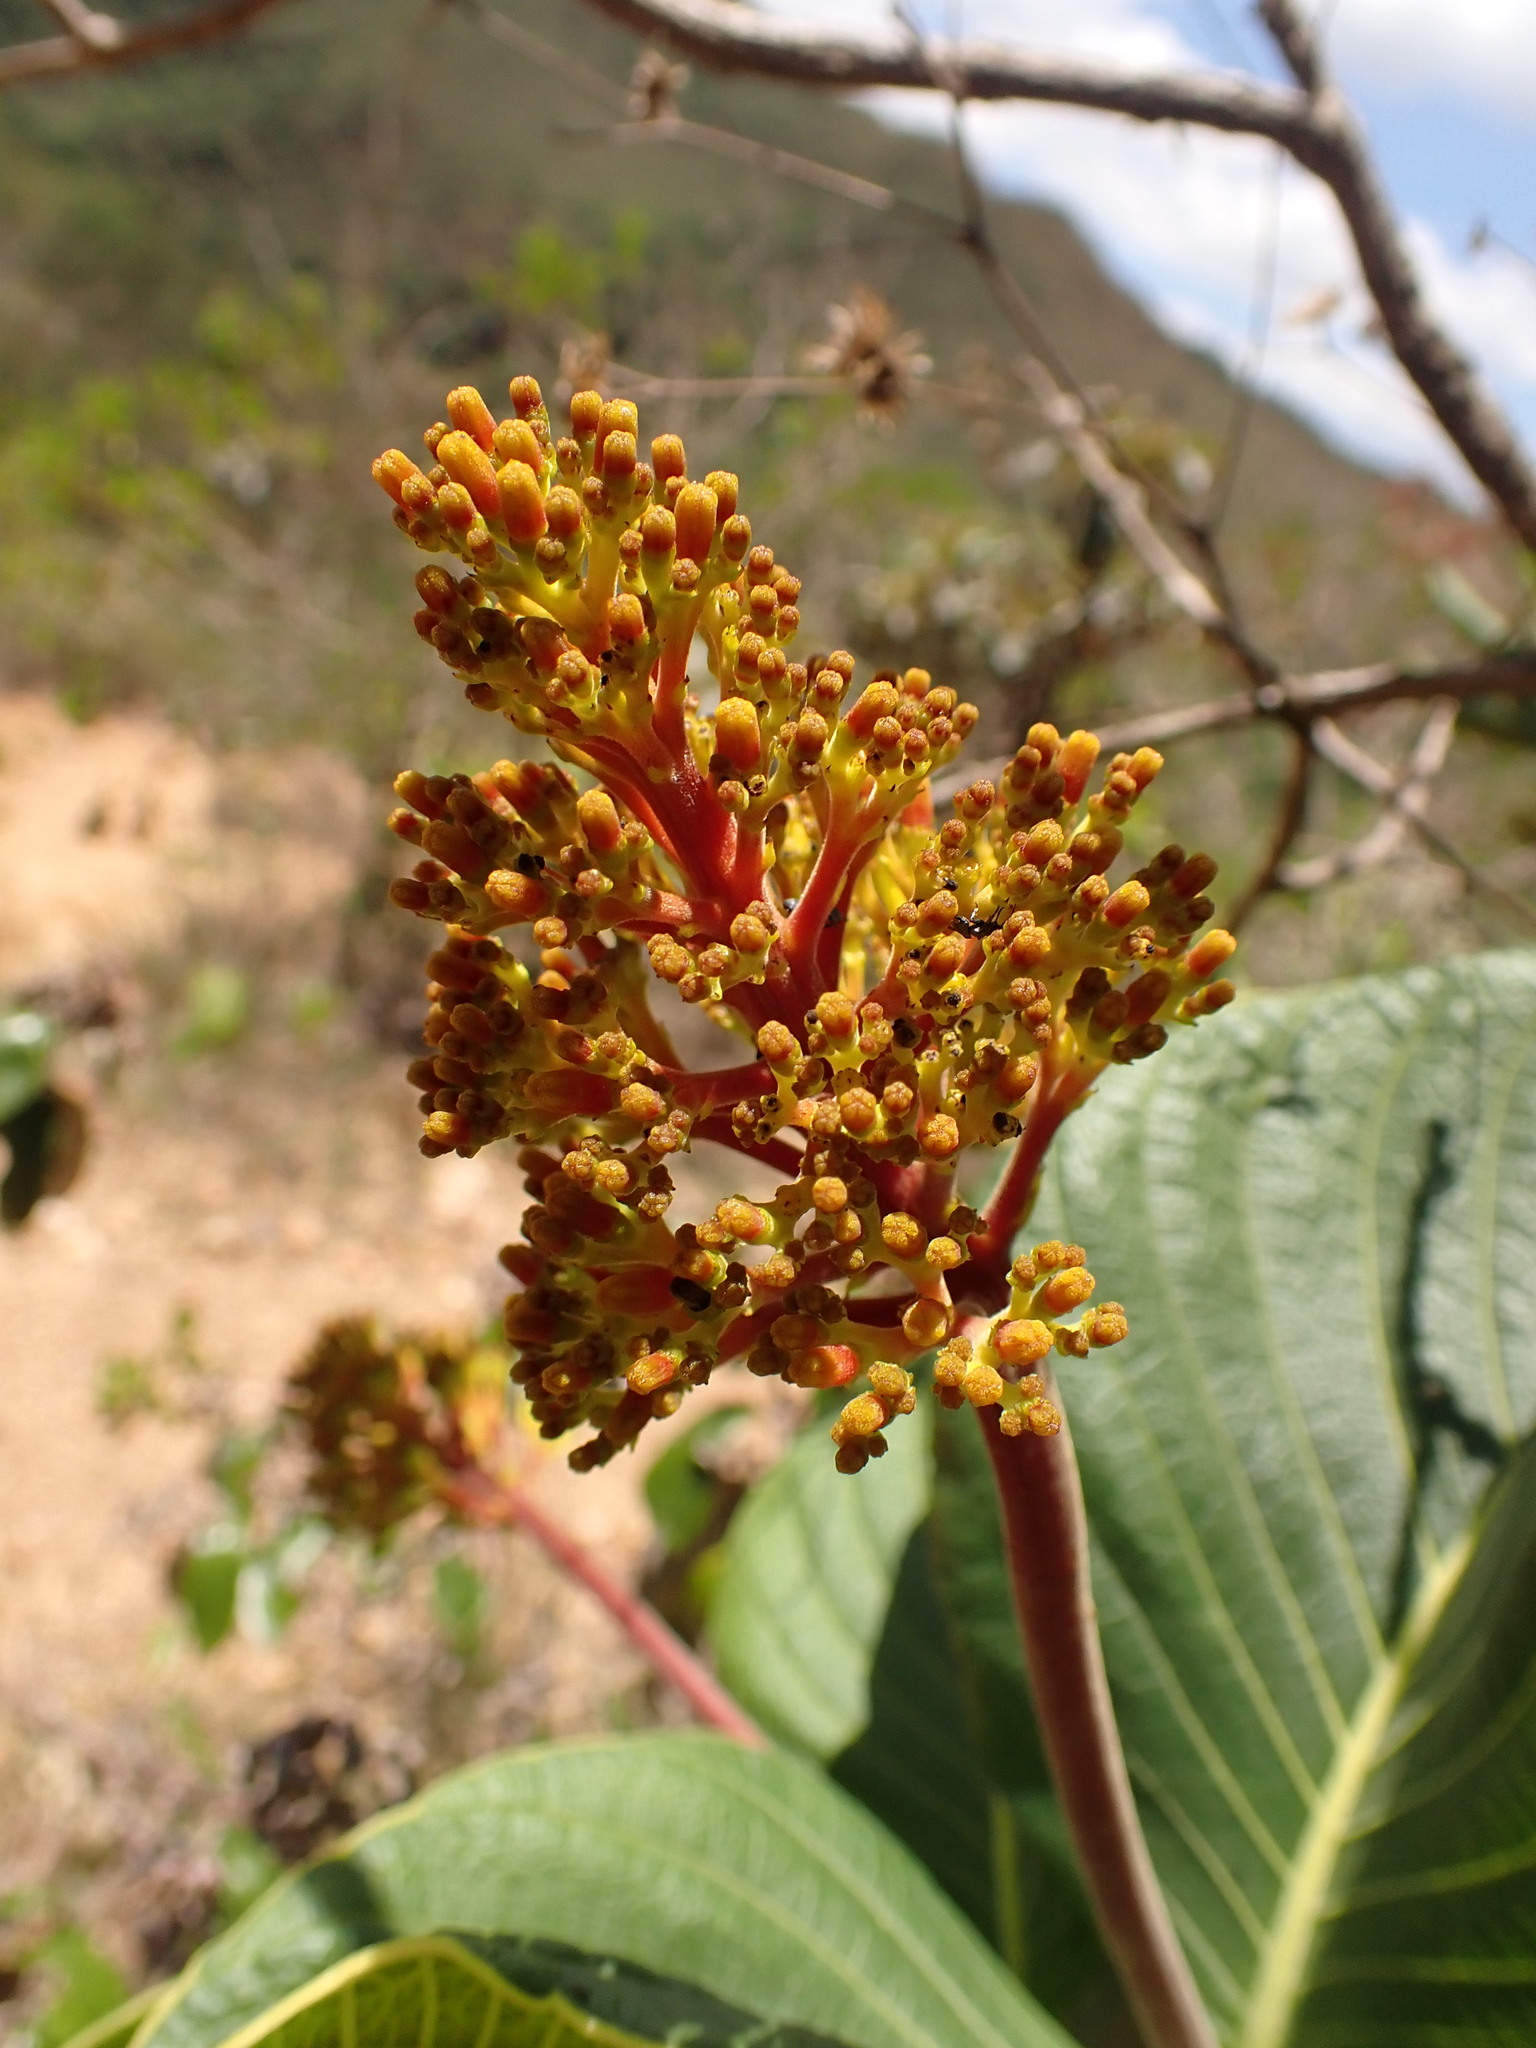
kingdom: Plantae
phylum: Tracheophyta
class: Magnoliopsida
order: Gentianales
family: Rubiaceae
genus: Palicourea
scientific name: Palicourea rigida
